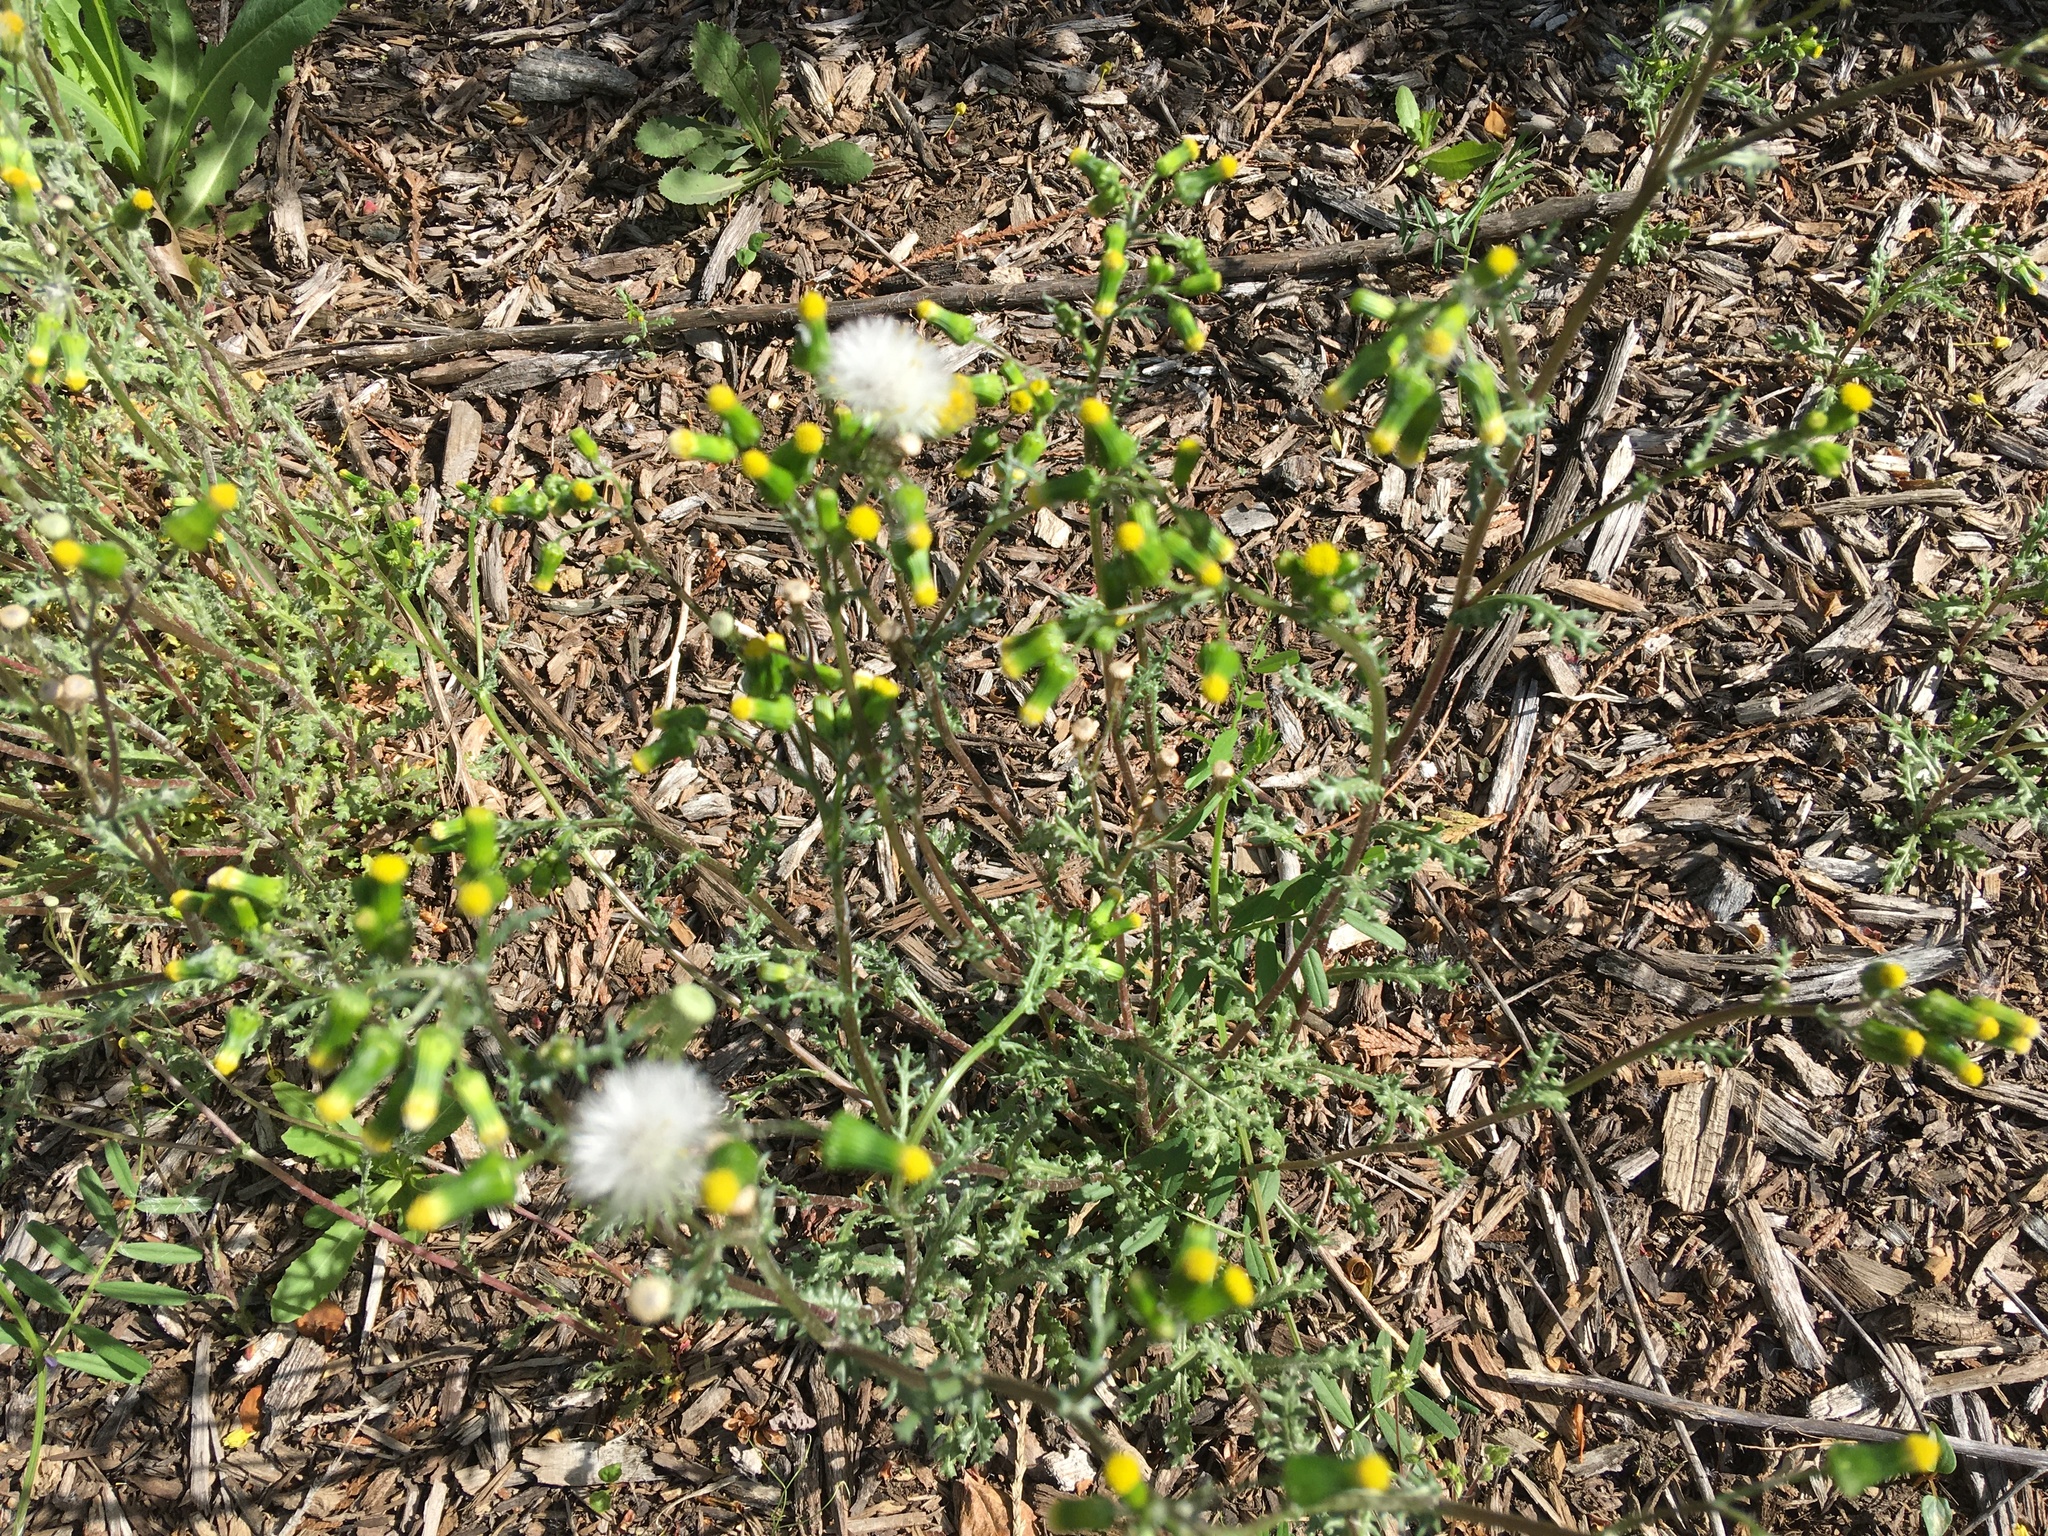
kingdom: Plantae
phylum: Tracheophyta
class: Magnoliopsida
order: Asterales
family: Asteraceae
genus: Senecio
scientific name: Senecio vulgaris
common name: Old-man-in-the-spring
